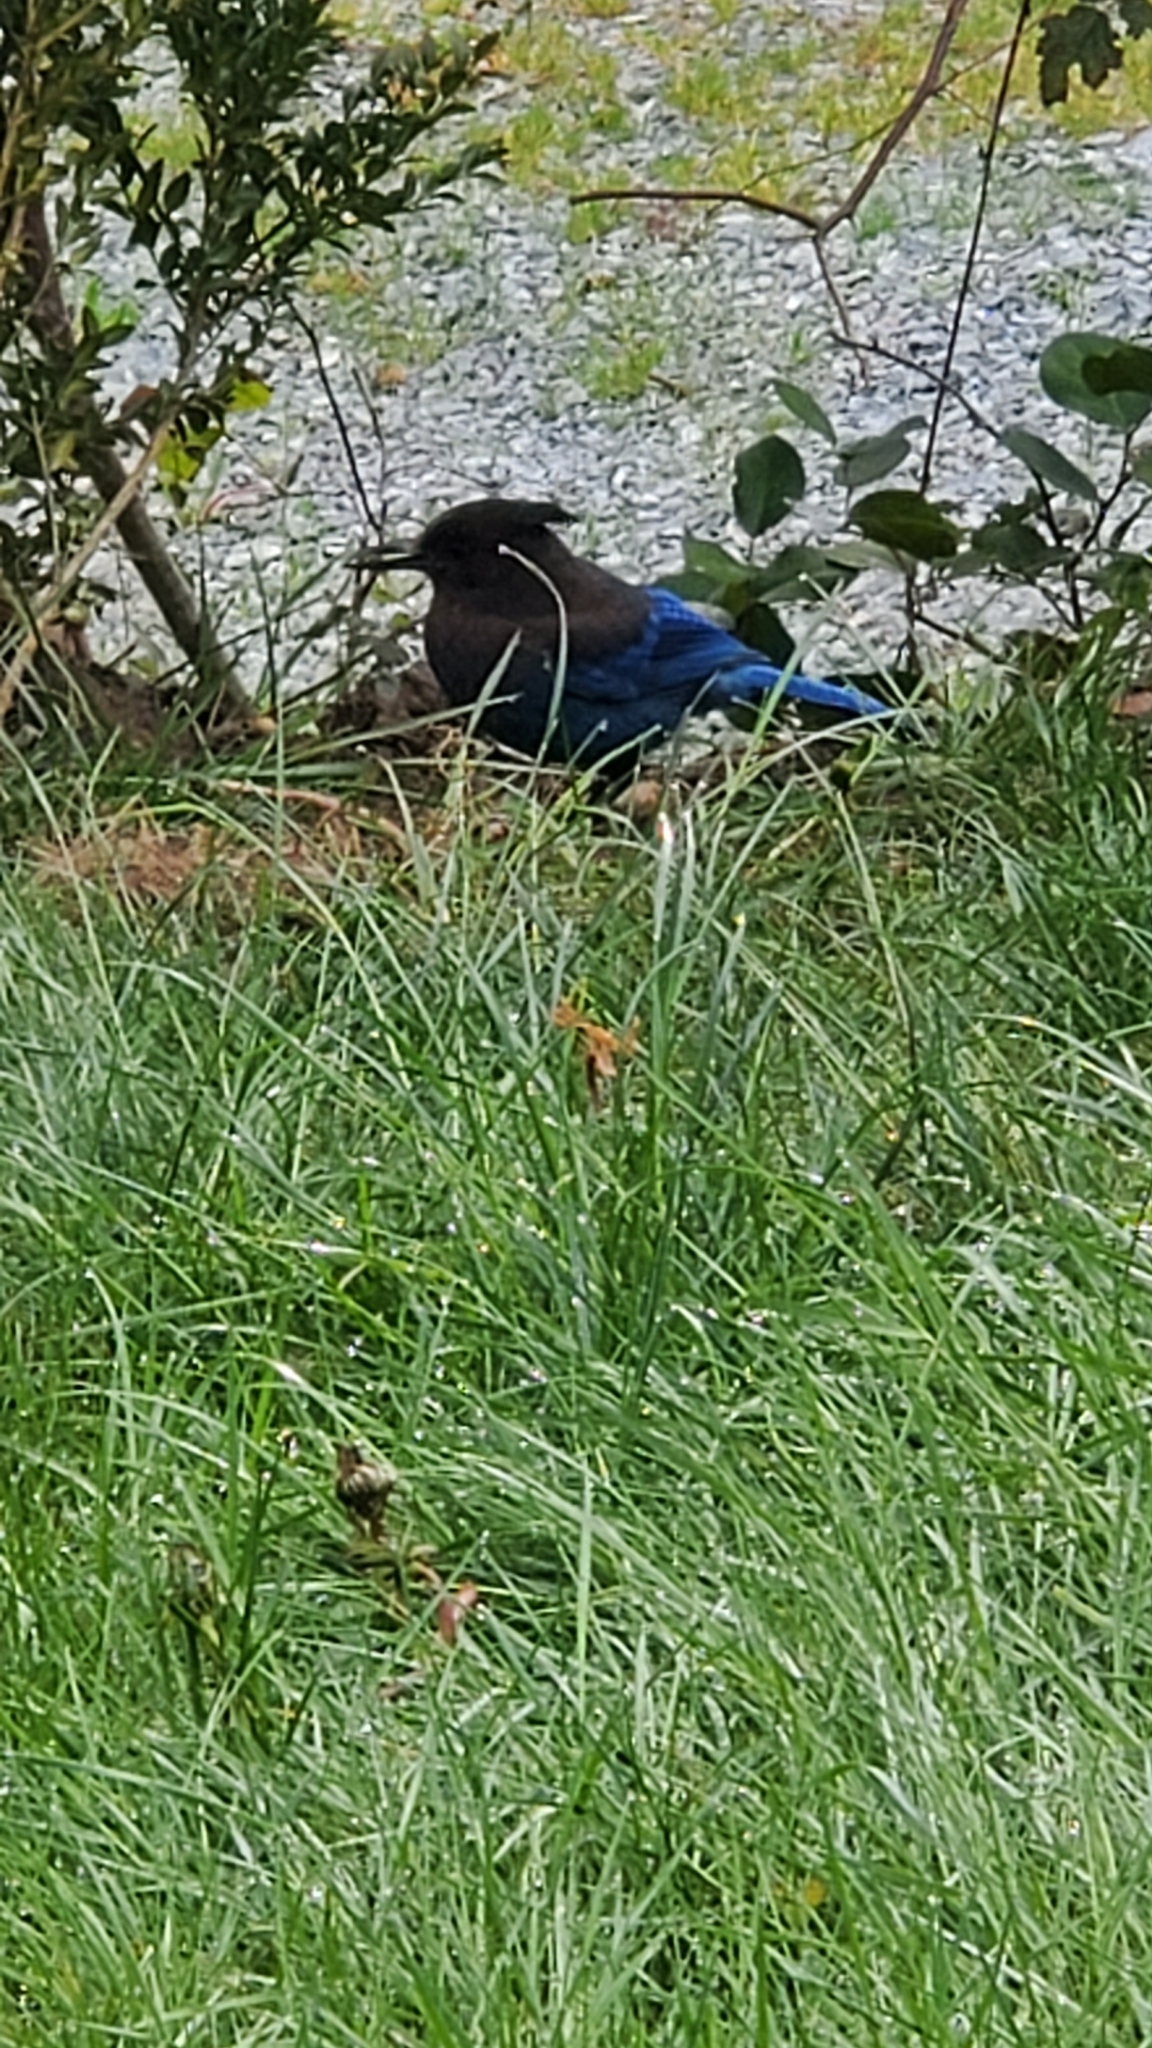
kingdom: Animalia
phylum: Chordata
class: Aves
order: Passeriformes
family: Corvidae
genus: Cyanocitta
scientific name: Cyanocitta stelleri
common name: Steller's jay
